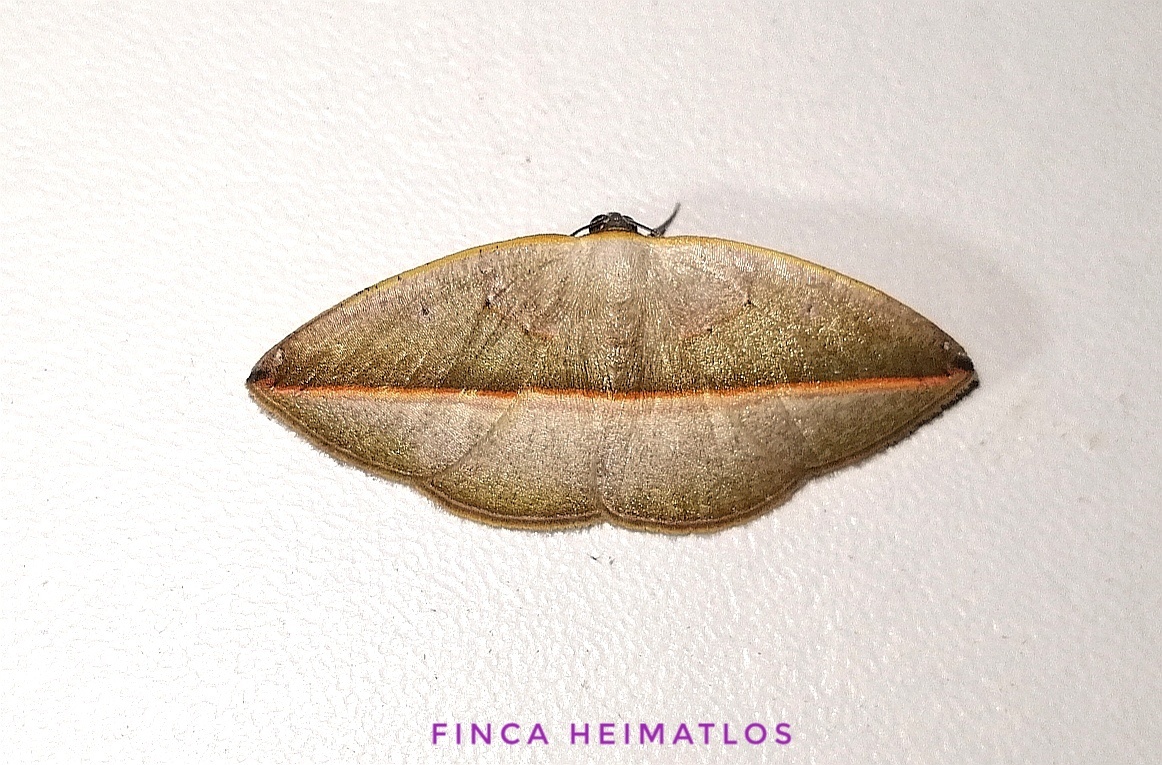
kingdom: Animalia
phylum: Arthropoda
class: Insecta
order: Lepidoptera
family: Geometridae
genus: Cartellodes
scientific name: Cartellodes levis
